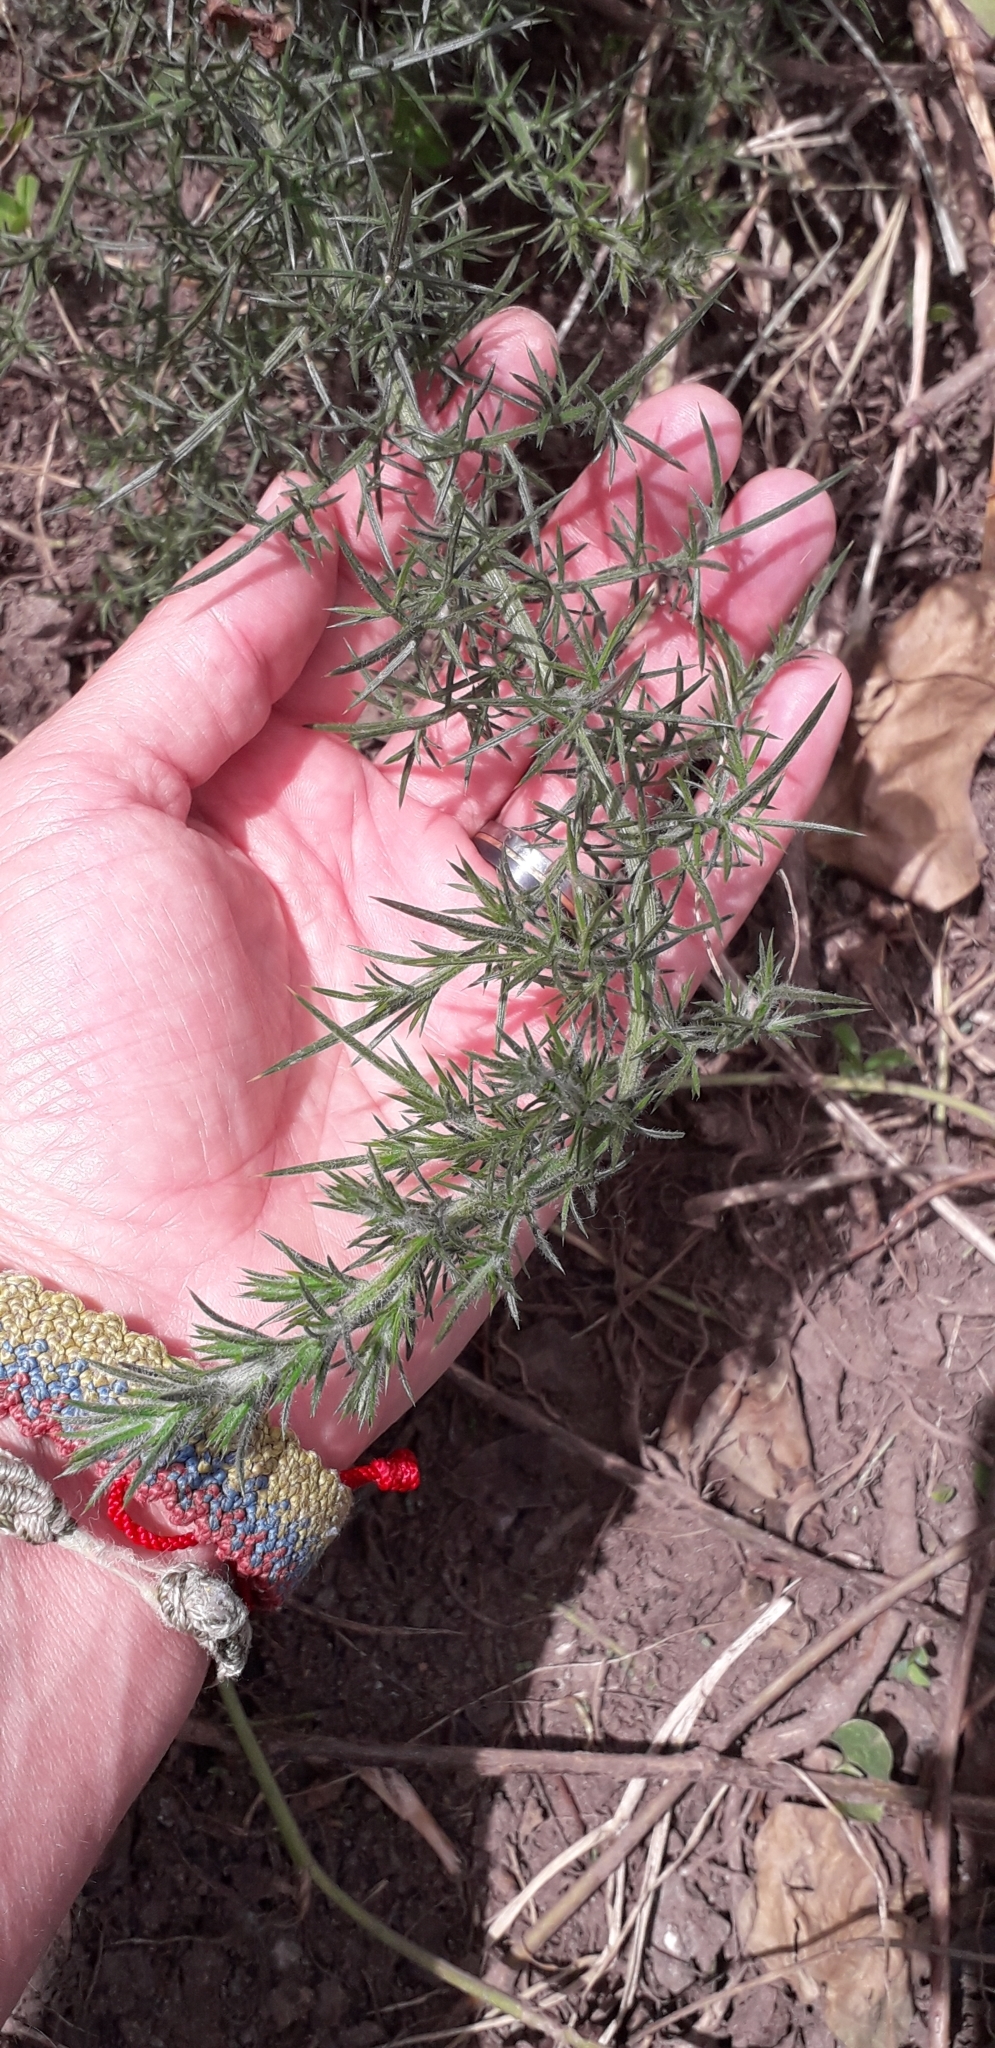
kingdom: Plantae
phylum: Tracheophyta
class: Magnoliopsida
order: Fabales
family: Fabaceae
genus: Ulex
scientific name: Ulex europaeus
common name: Common gorse
